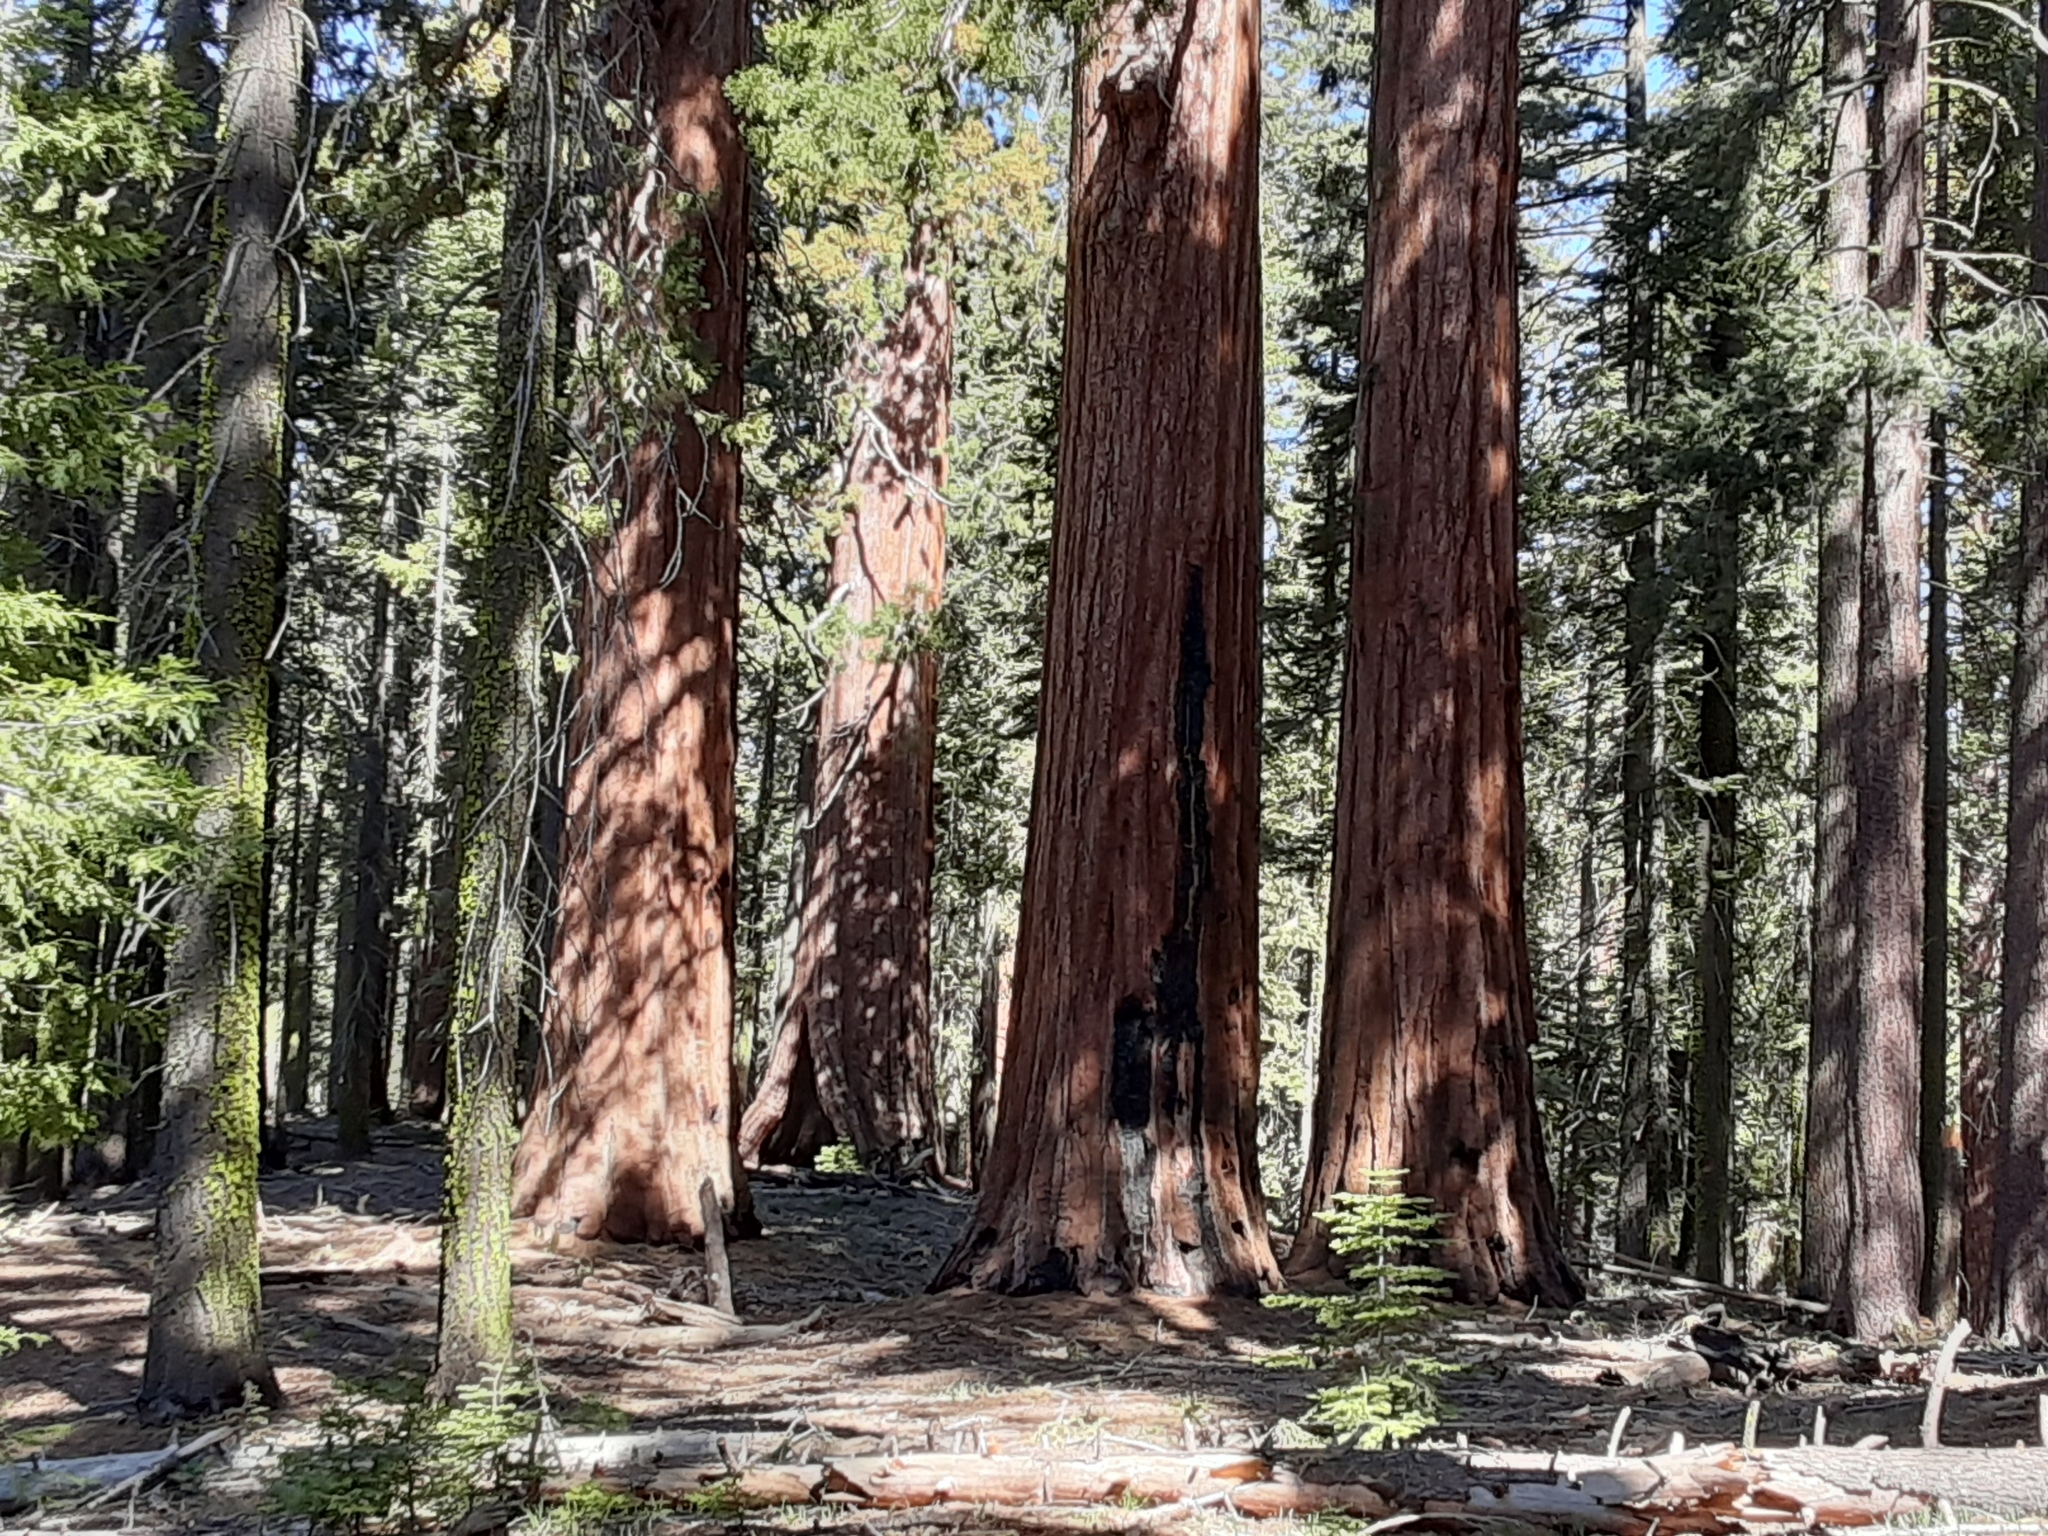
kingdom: Plantae
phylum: Tracheophyta
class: Pinopsida
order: Pinales
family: Cupressaceae
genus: Sequoiadendron
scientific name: Sequoiadendron giganteum
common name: Wellingtonia
